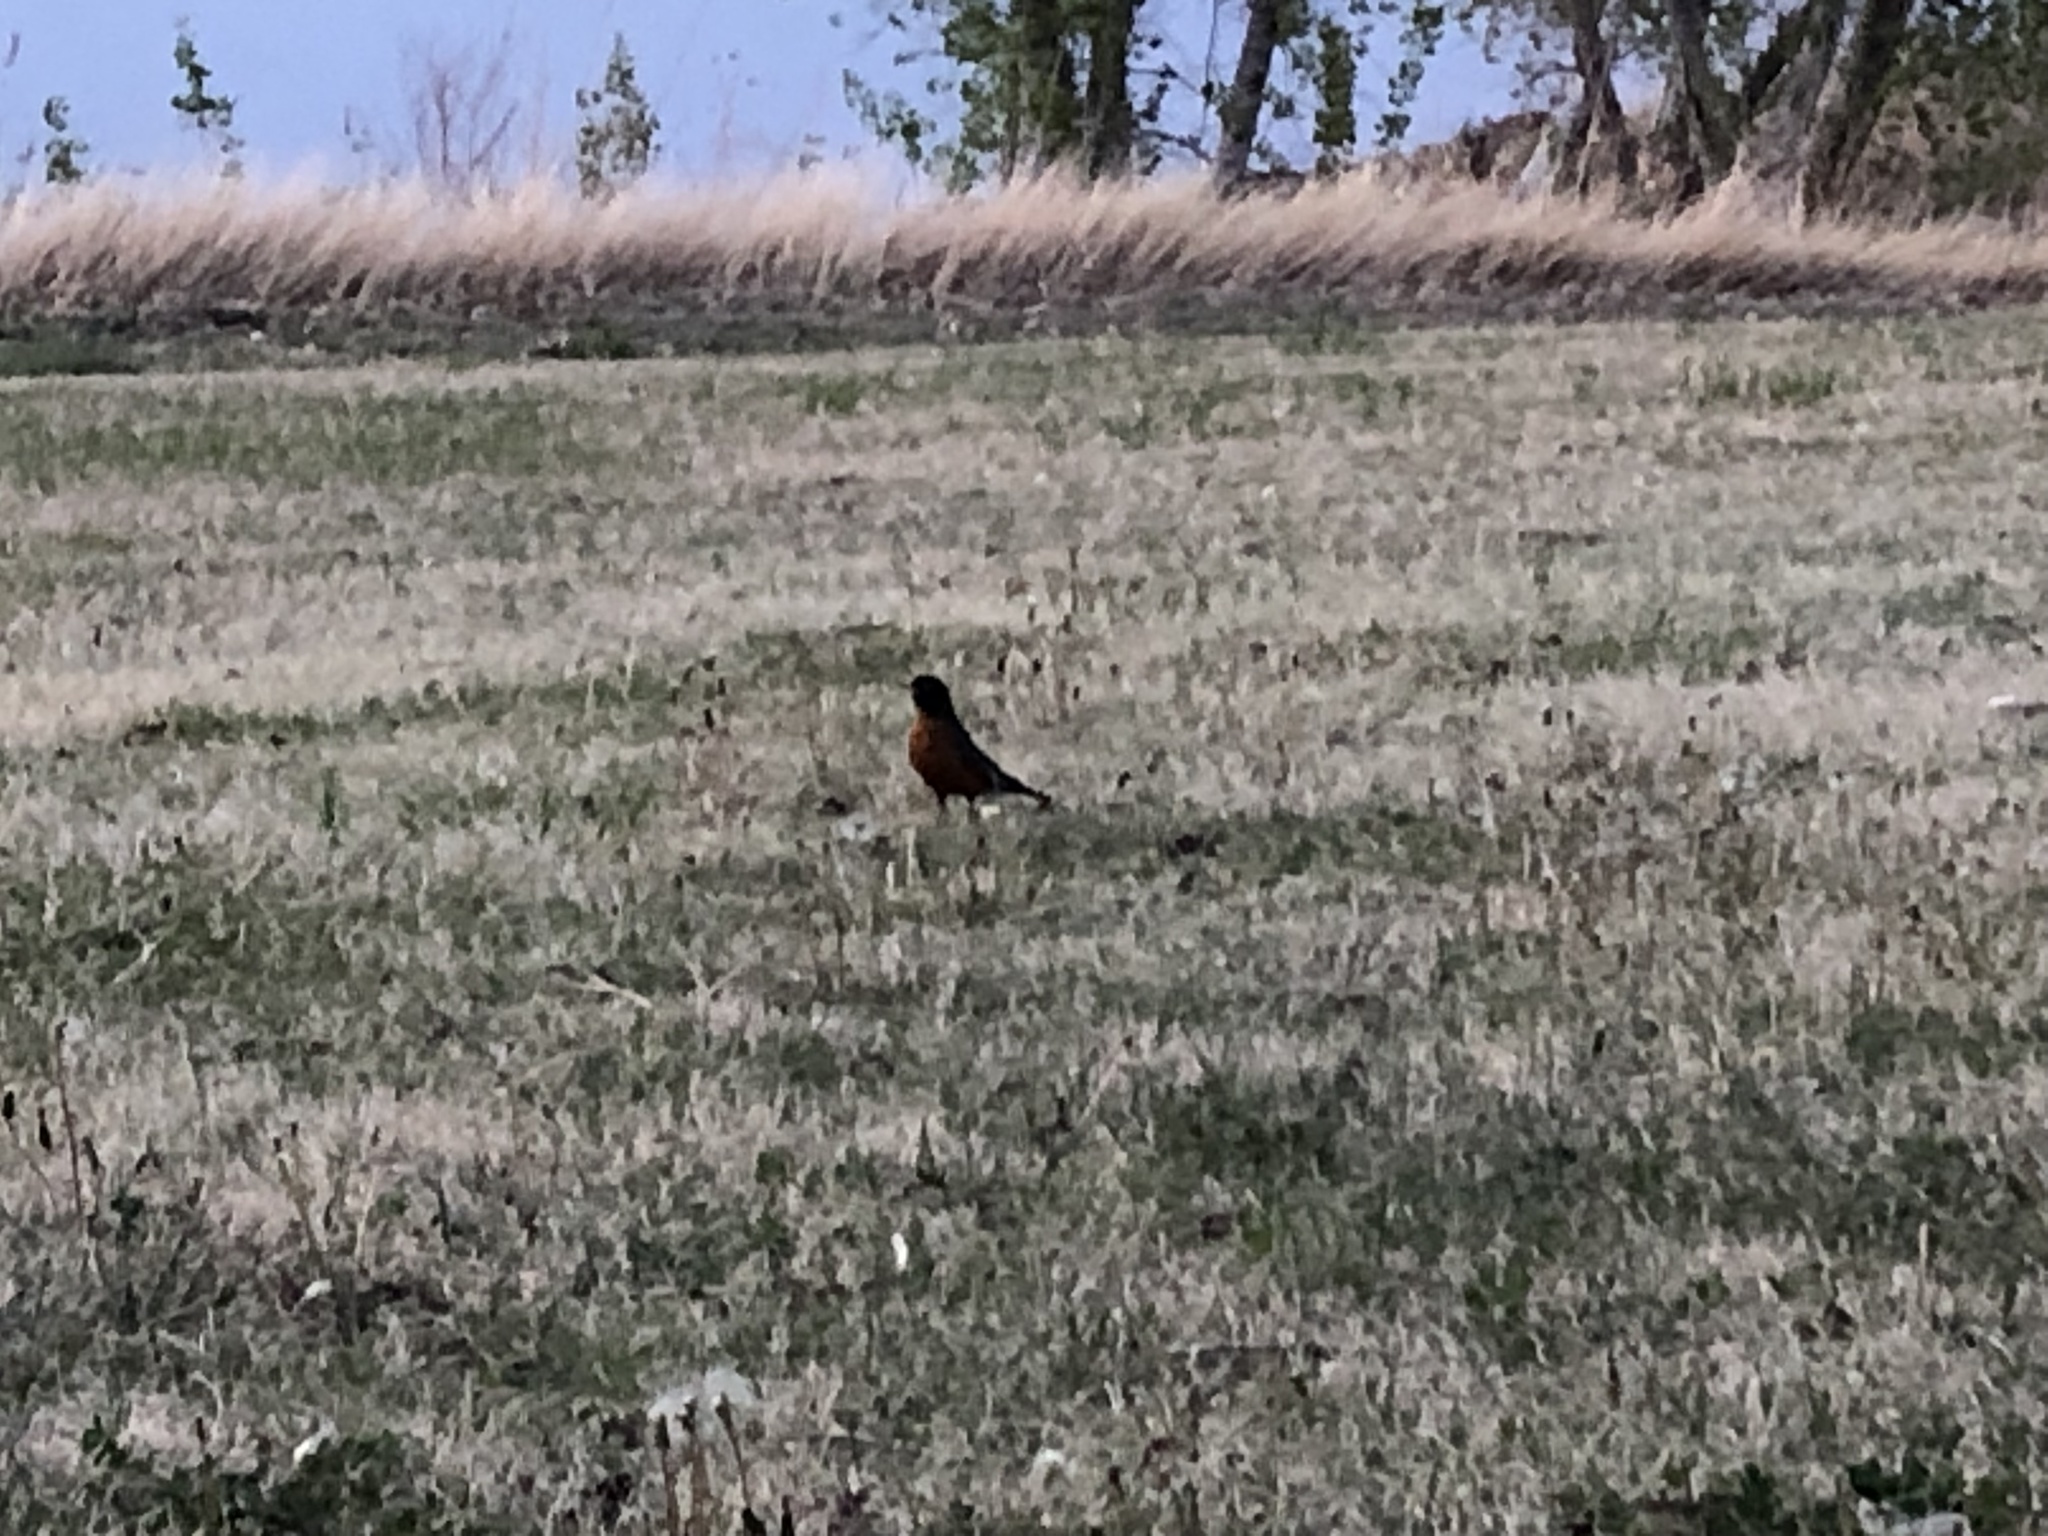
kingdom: Animalia
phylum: Chordata
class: Aves
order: Passeriformes
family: Turdidae
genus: Turdus
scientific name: Turdus migratorius
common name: American robin
